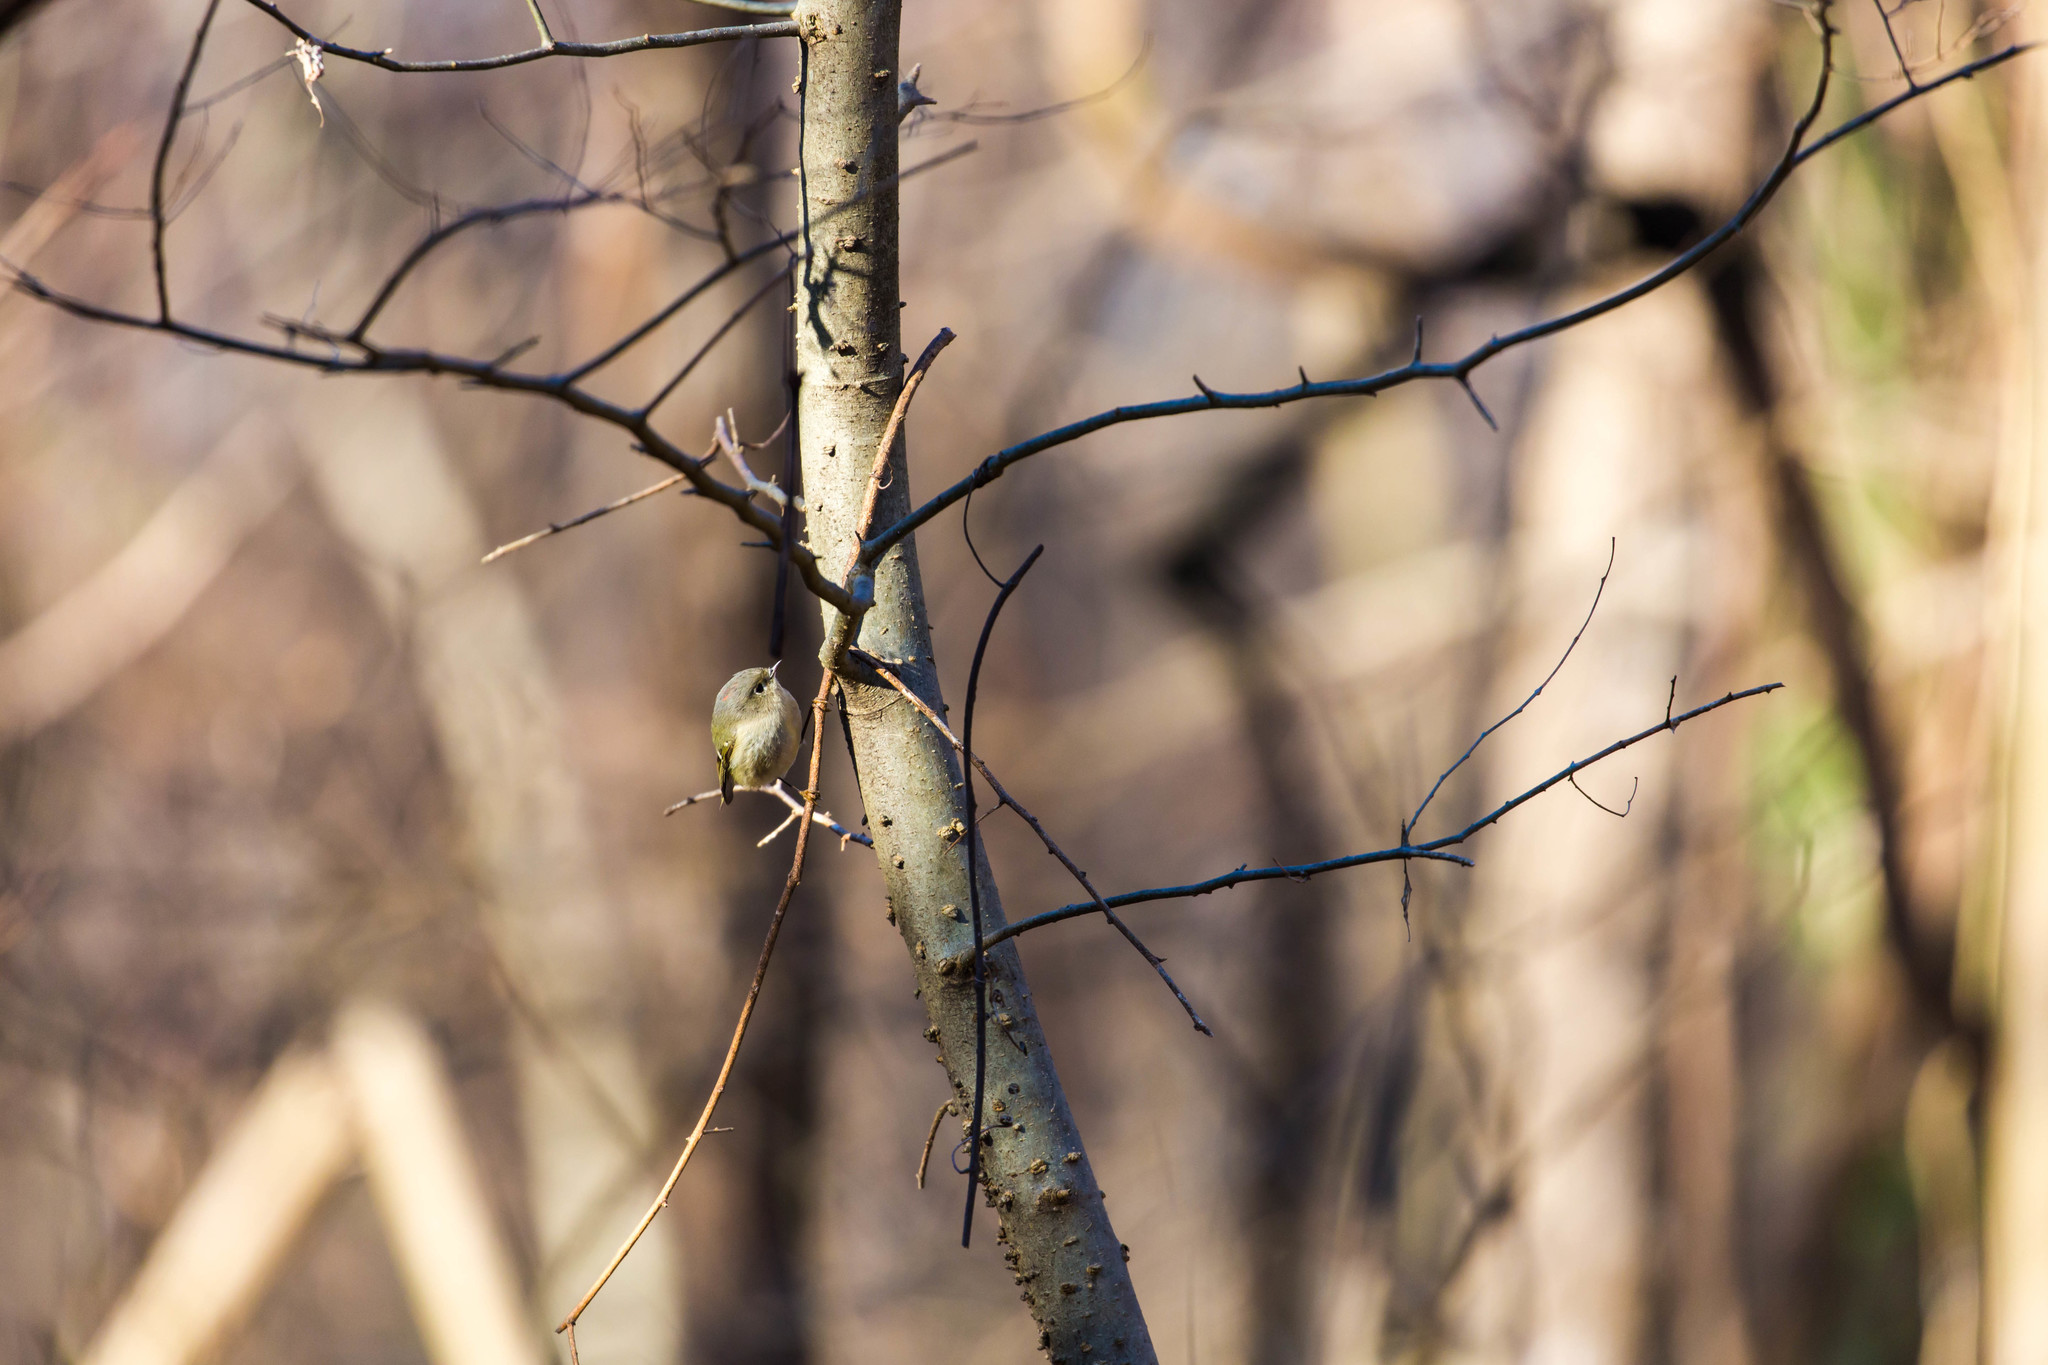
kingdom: Animalia
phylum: Chordata
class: Aves
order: Passeriformes
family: Regulidae
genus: Regulus
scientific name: Regulus calendula
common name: Ruby-crowned kinglet
